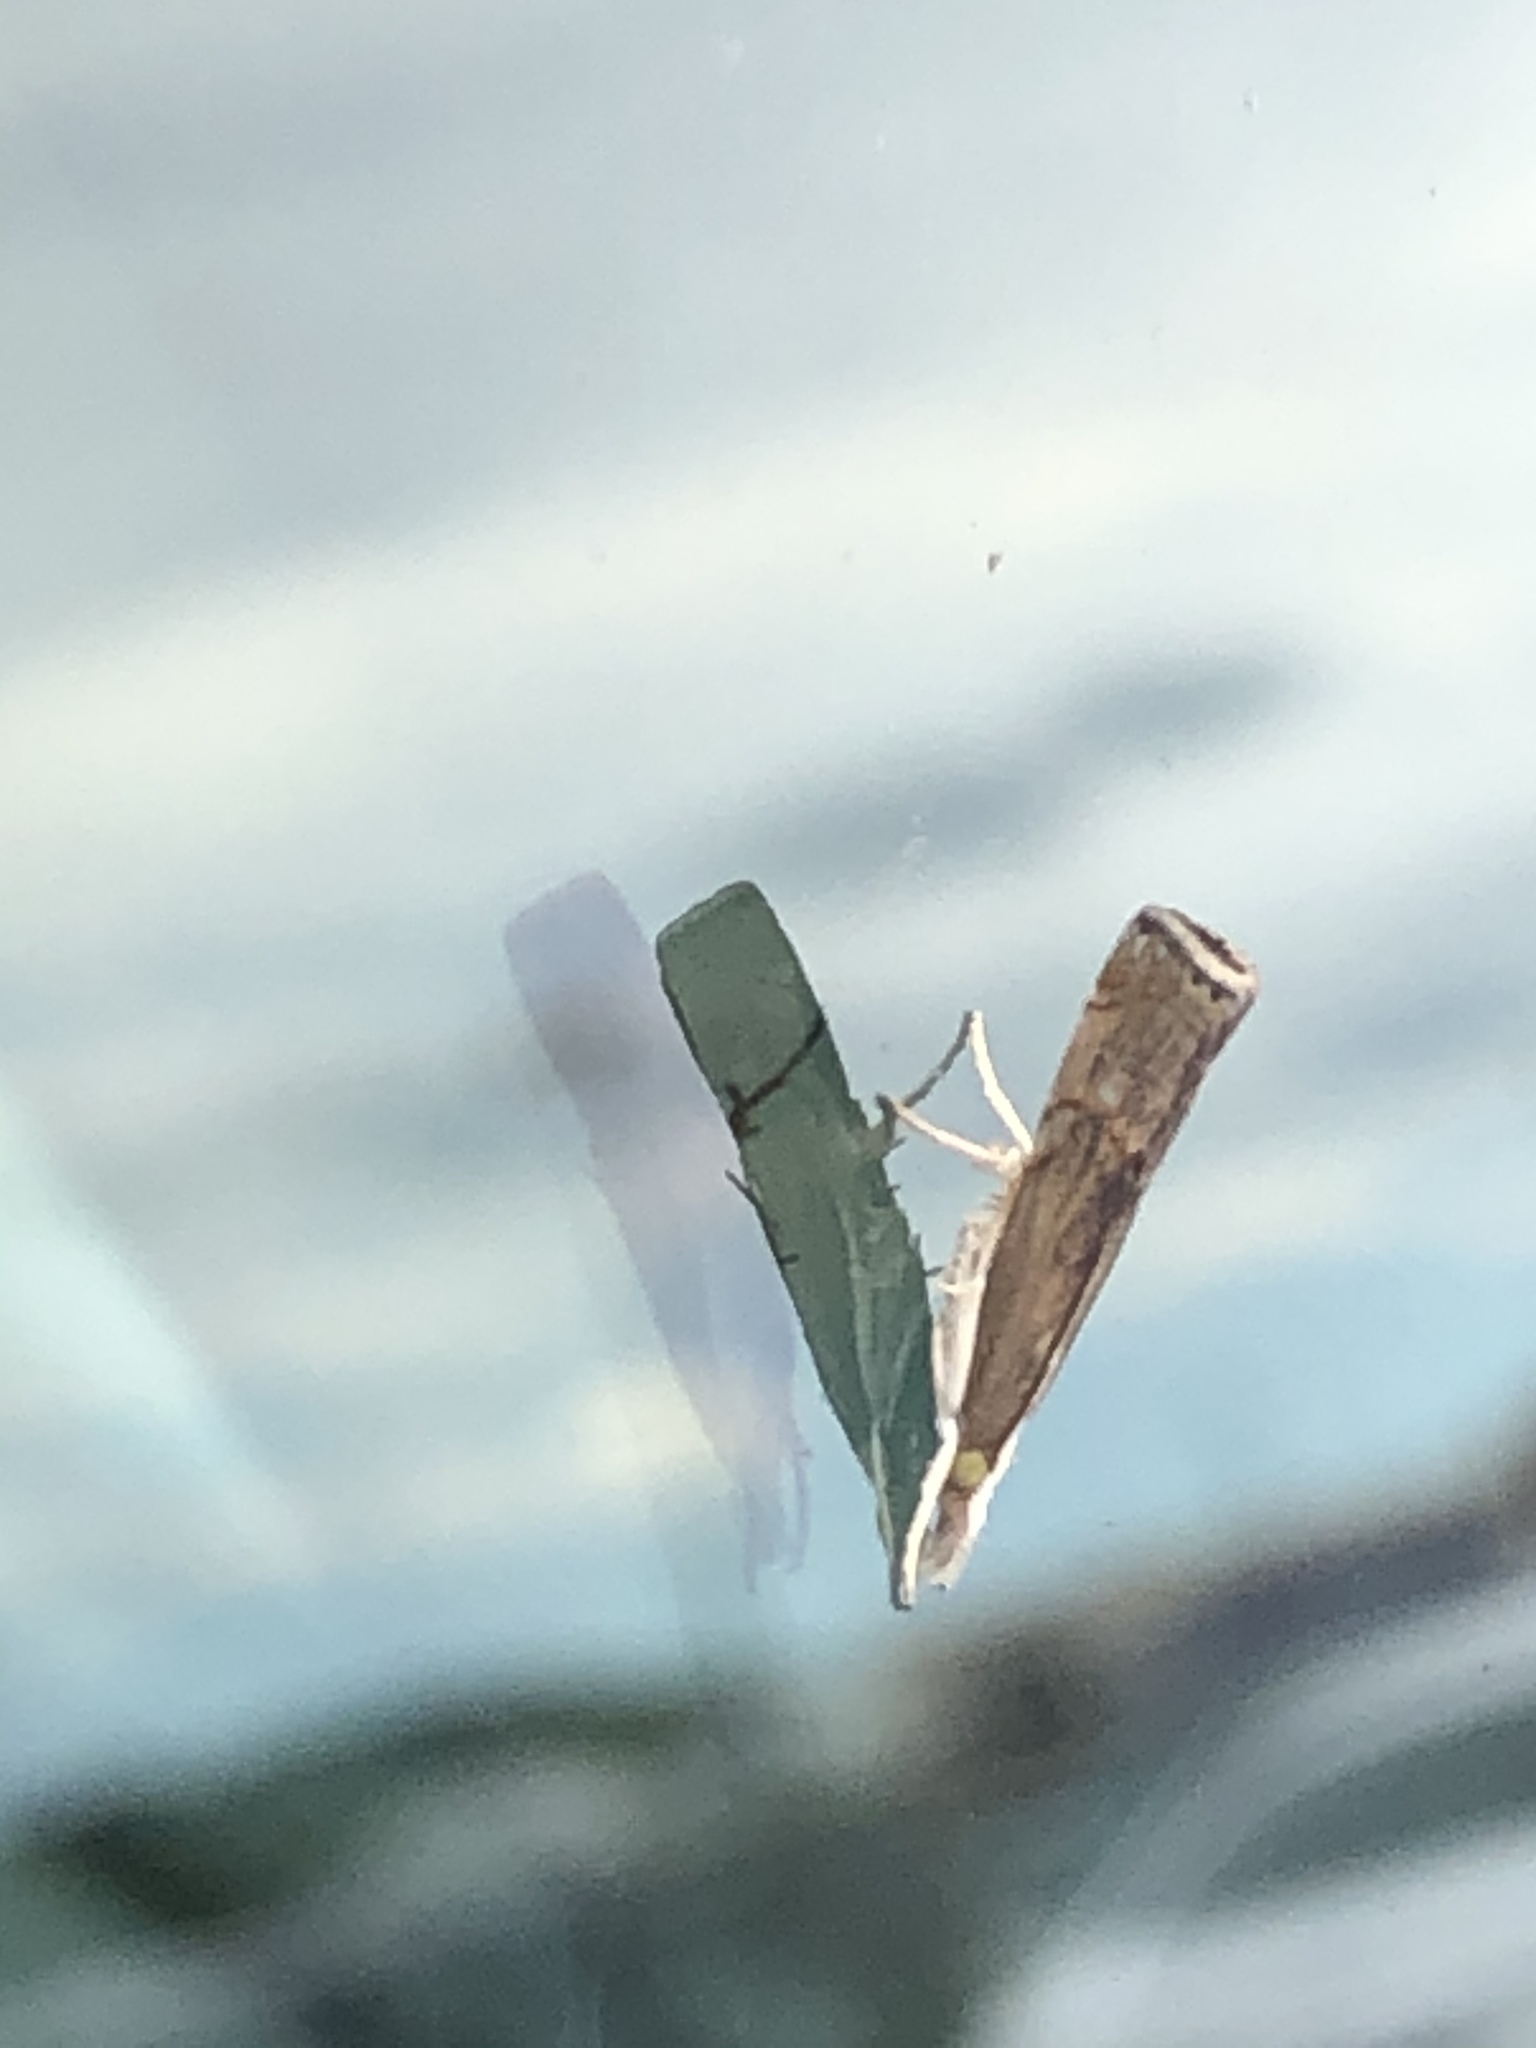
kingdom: Animalia
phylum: Arthropoda
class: Insecta
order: Lepidoptera
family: Crambidae
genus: Parapediasia
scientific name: Parapediasia teterellus
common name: Bluegrass webworm moth
